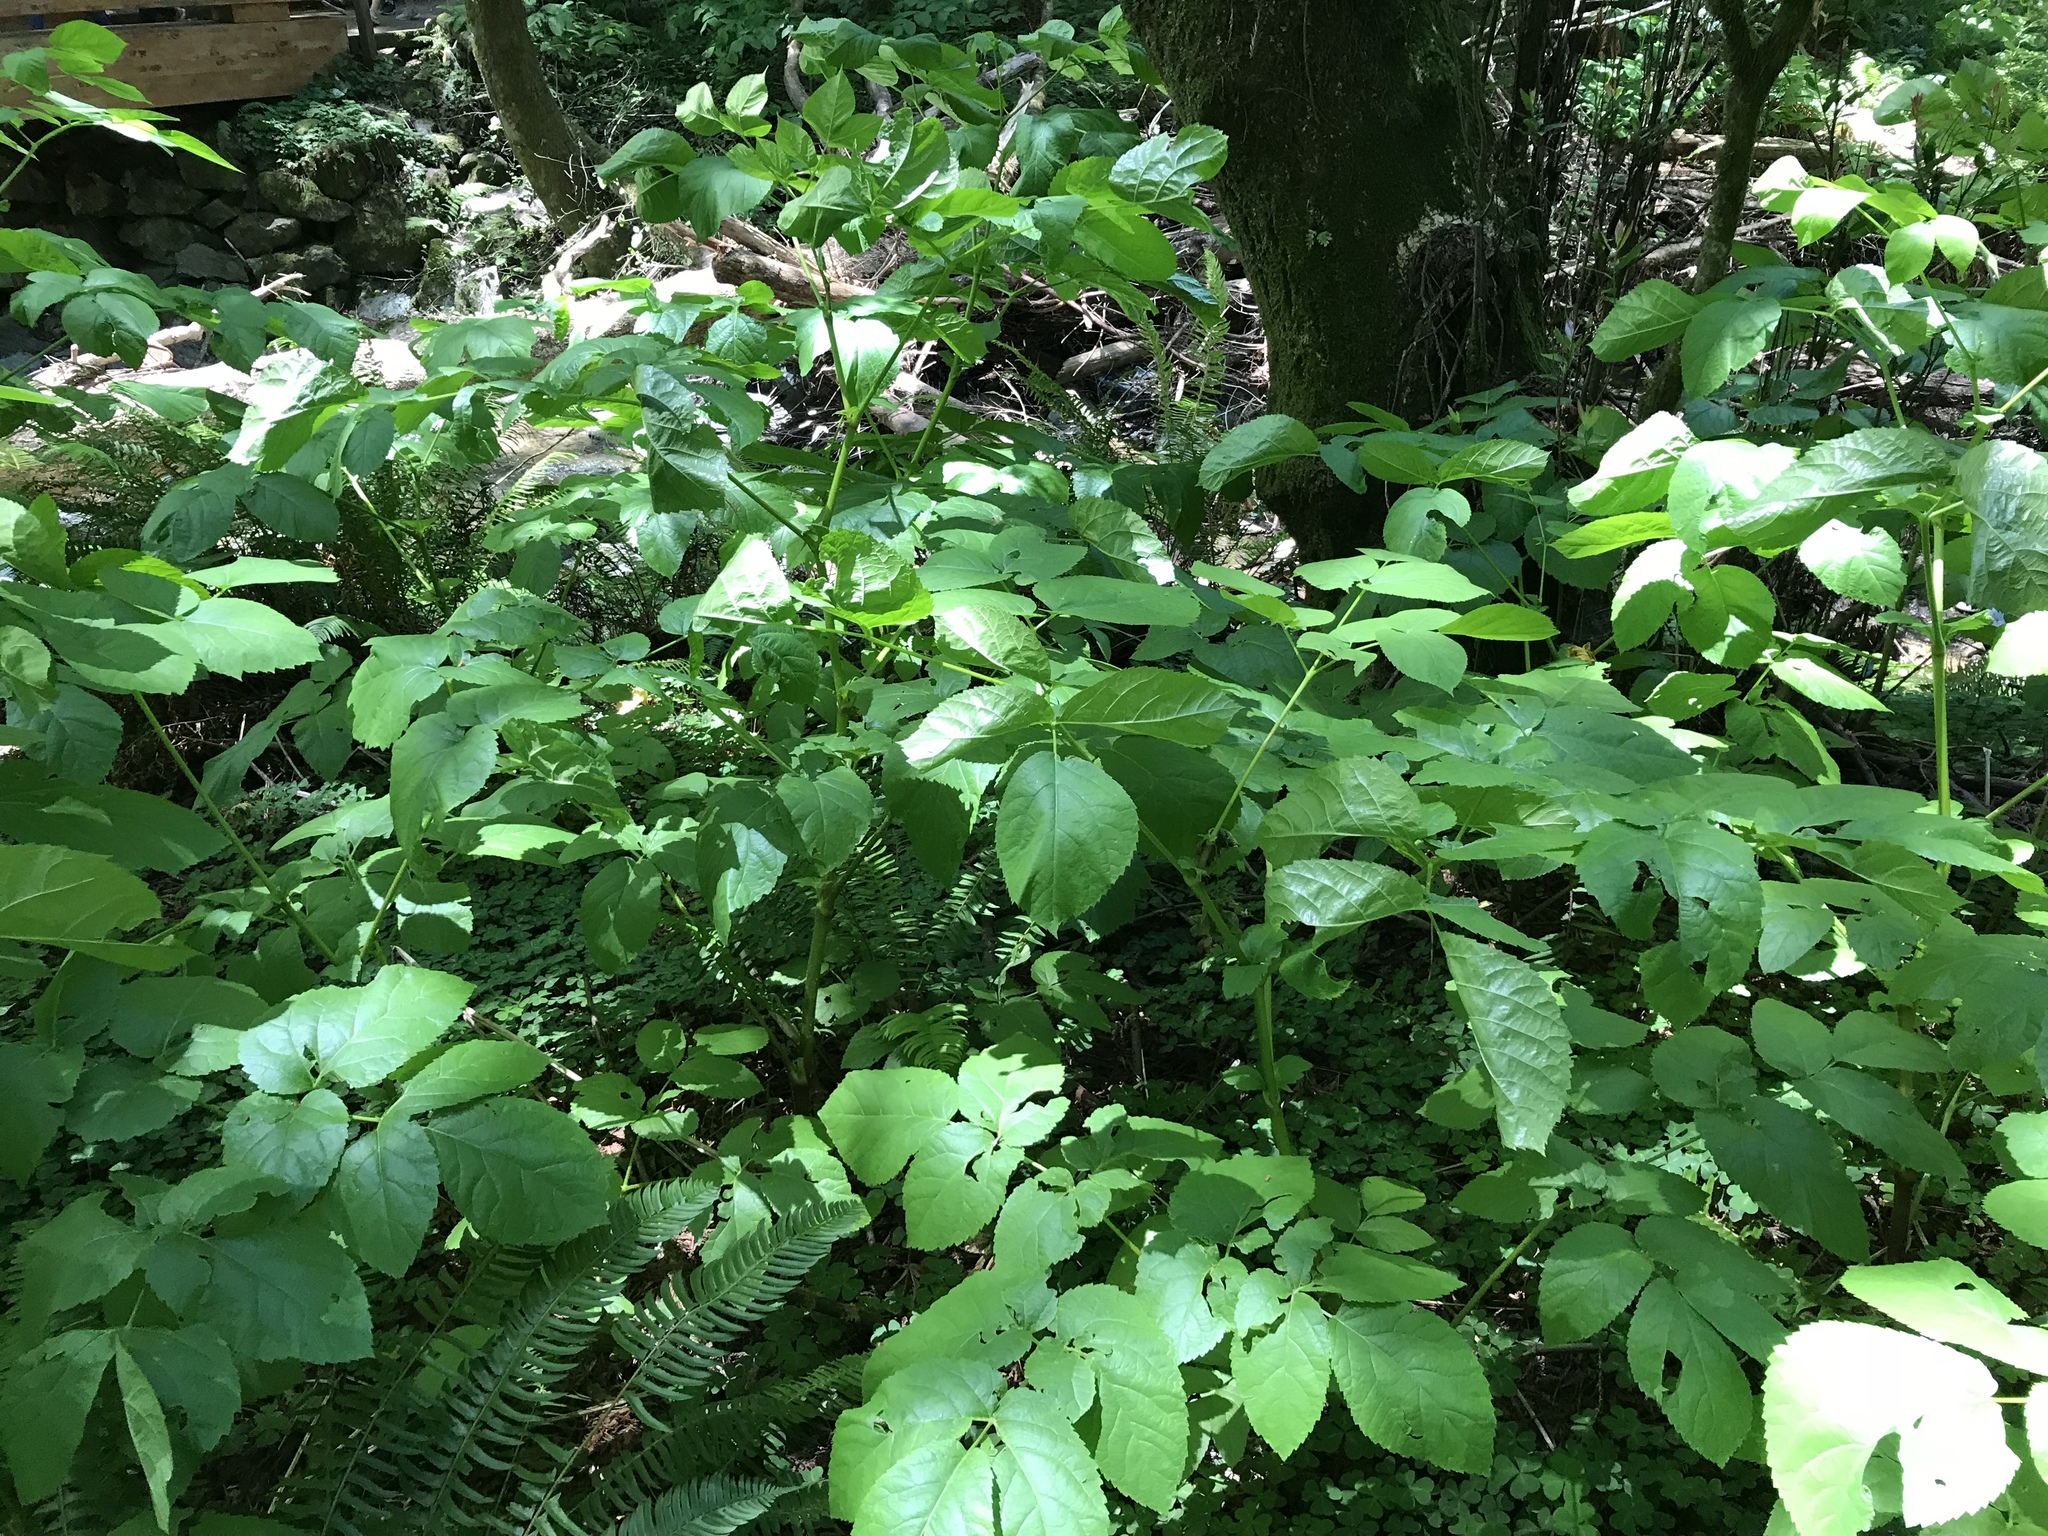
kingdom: Plantae
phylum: Tracheophyta
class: Magnoliopsida
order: Apiales
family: Araliaceae
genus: Aralia
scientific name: Aralia californica
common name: California-ginseng
